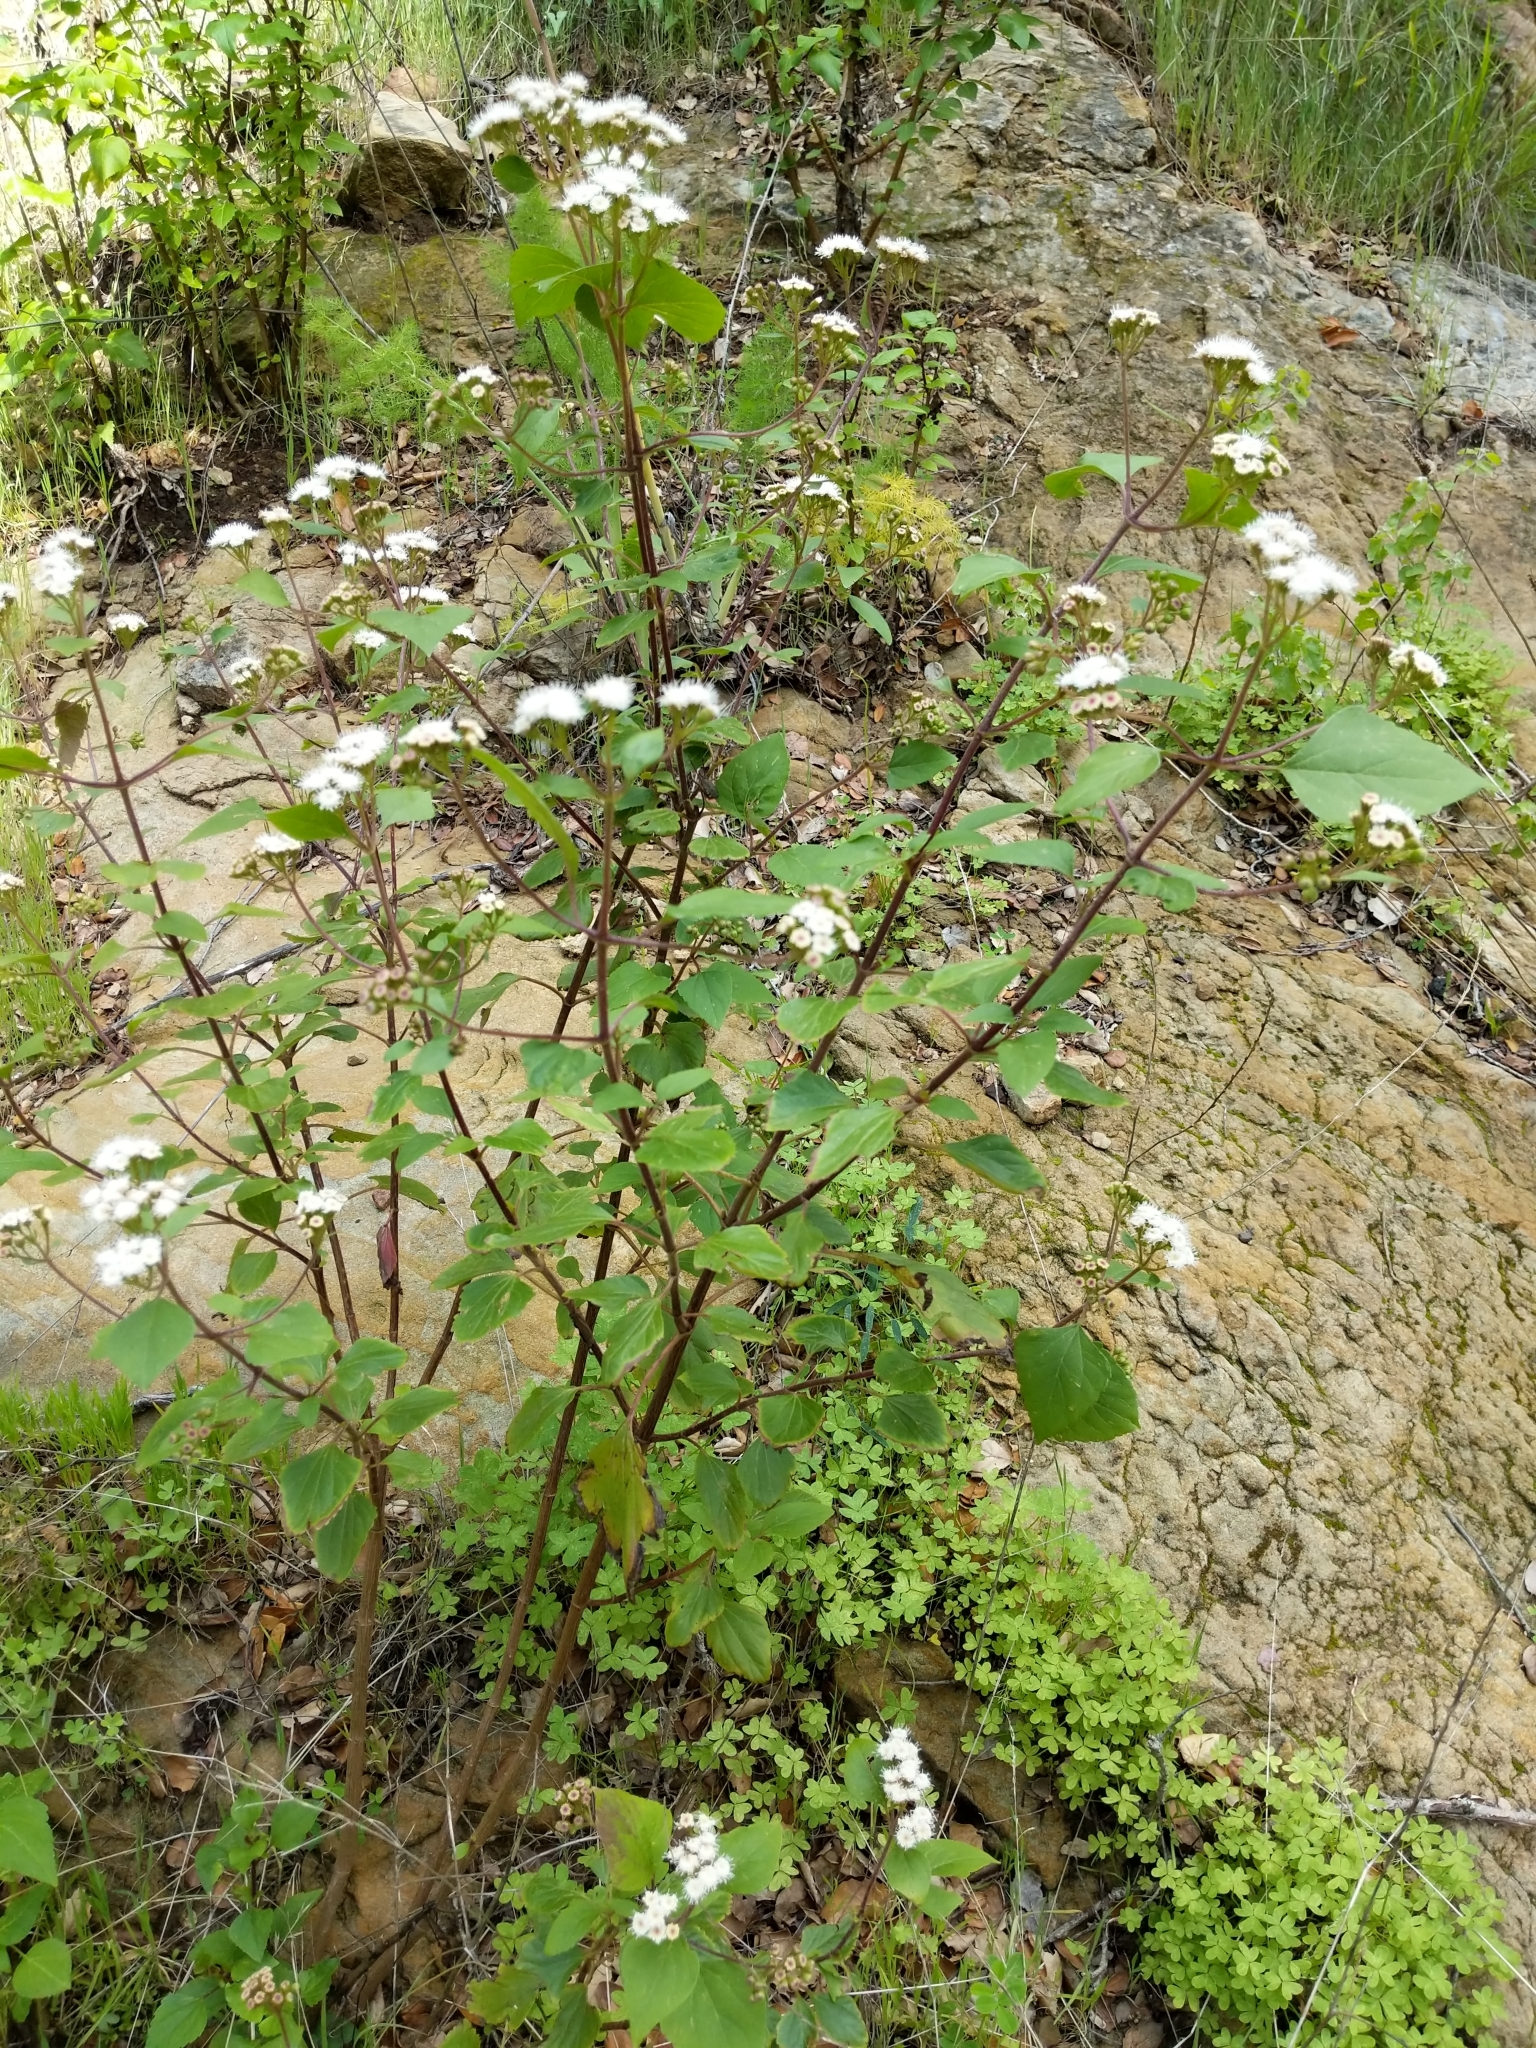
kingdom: Plantae
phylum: Tracheophyta
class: Magnoliopsida
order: Asterales
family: Asteraceae
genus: Ageratina
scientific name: Ageratina adenophora
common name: Sticky snakeroot
